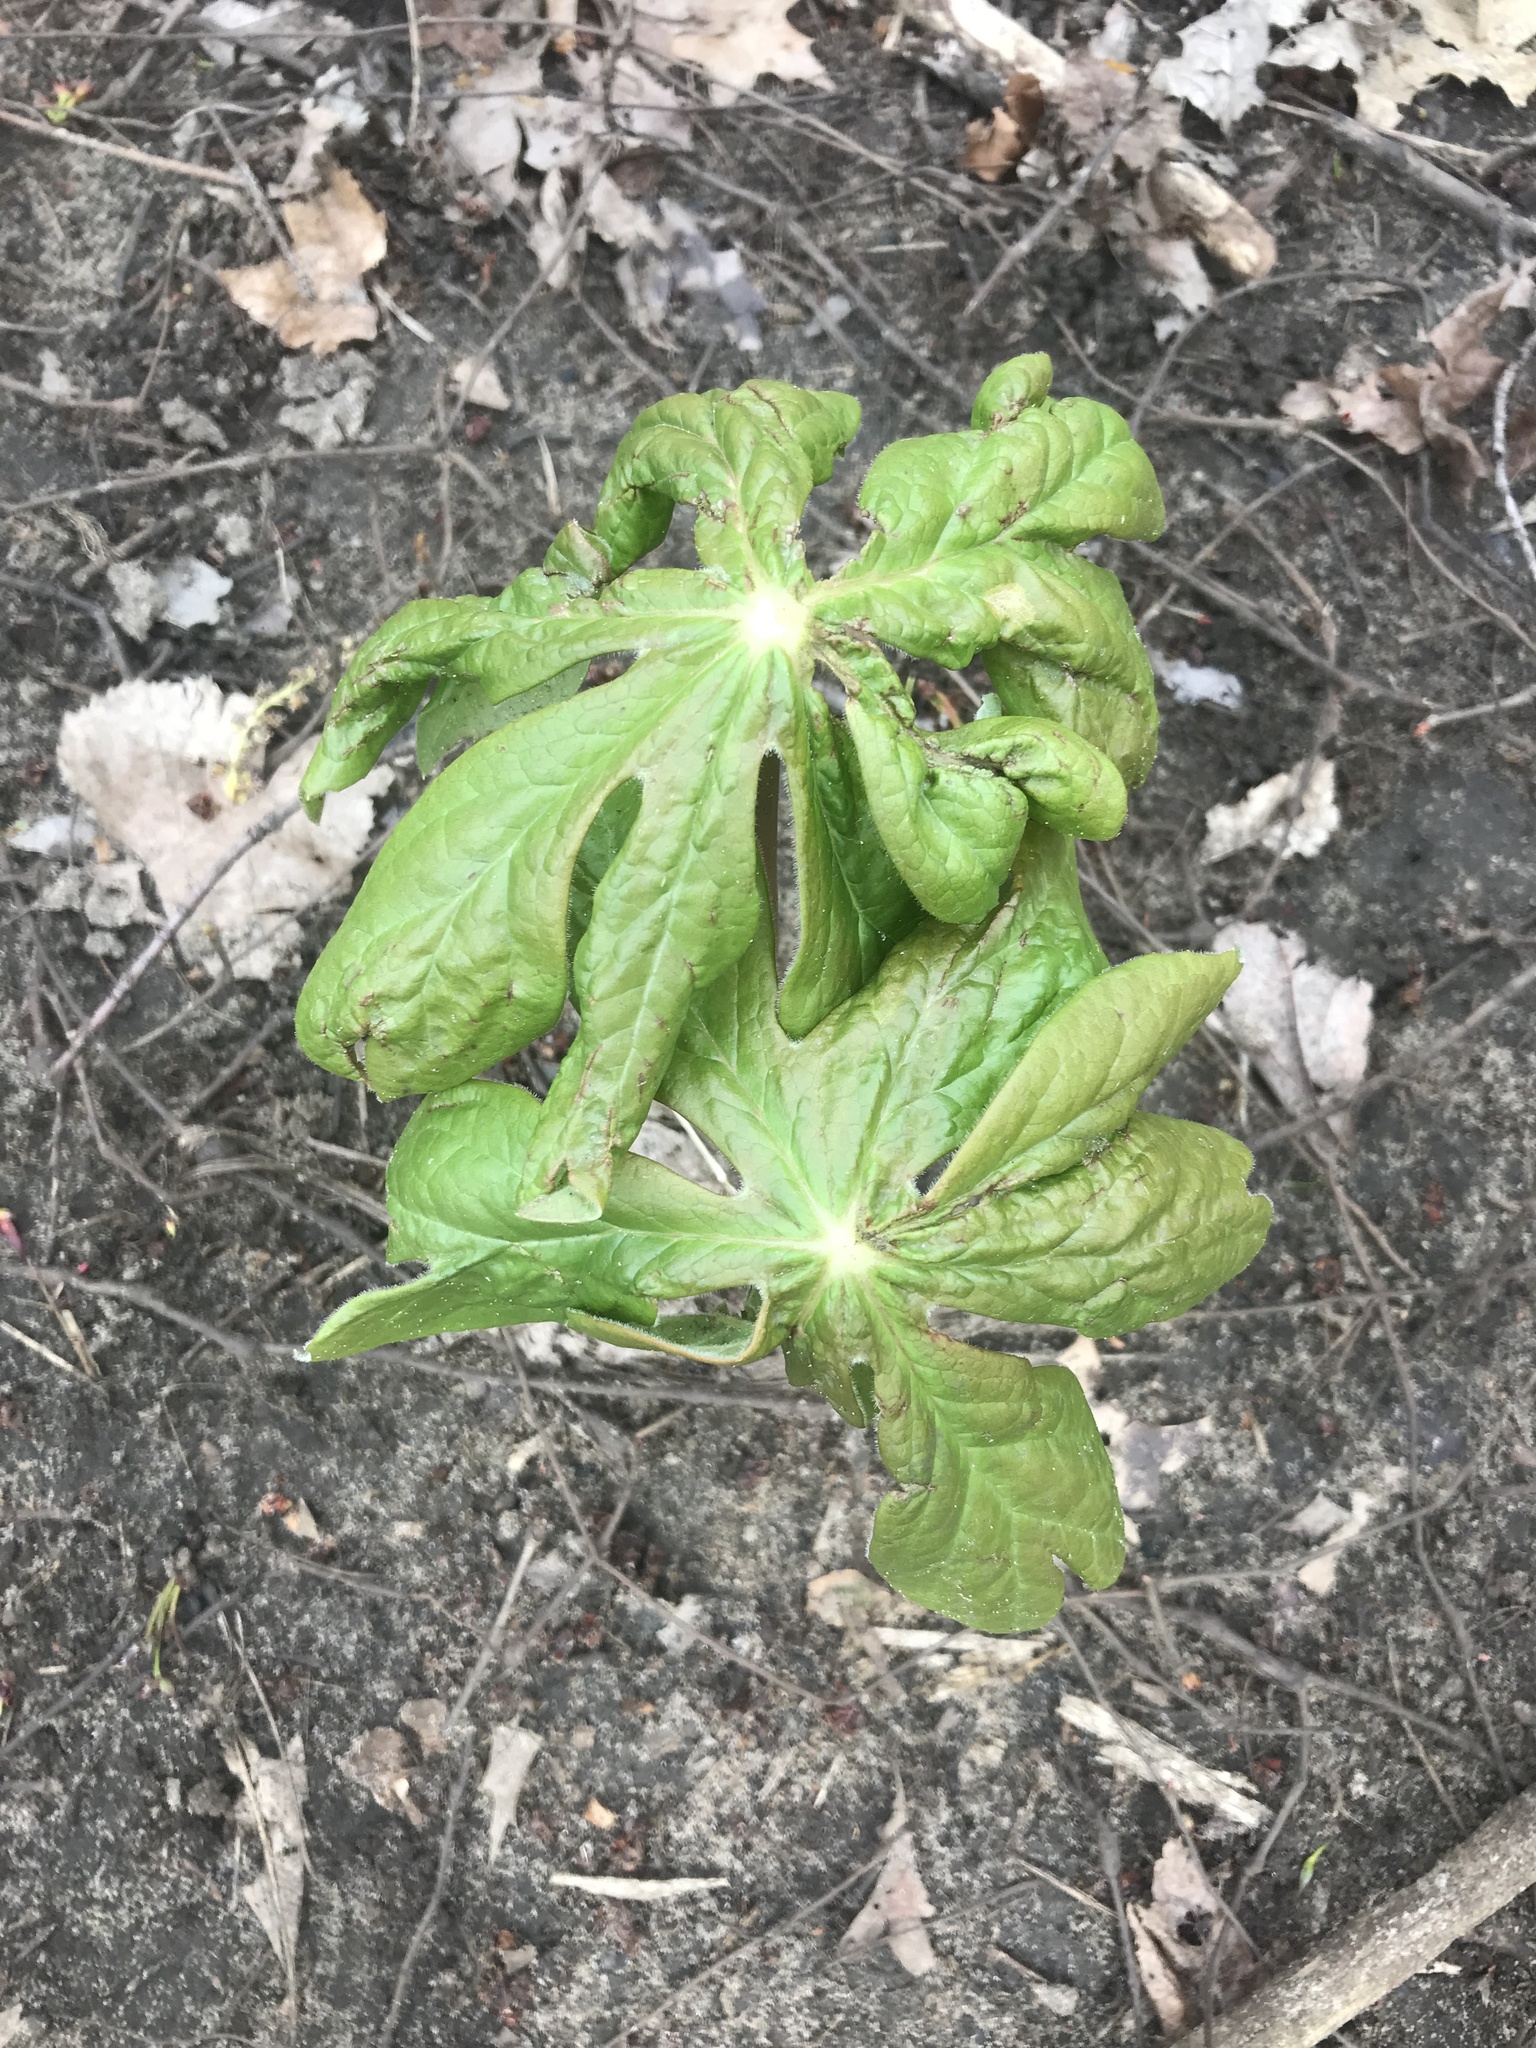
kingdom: Plantae
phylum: Tracheophyta
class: Magnoliopsida
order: Ranunculales
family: Berberidaceae
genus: Podophyllum
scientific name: Podophyllum peltatum
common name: Wild mandrake
